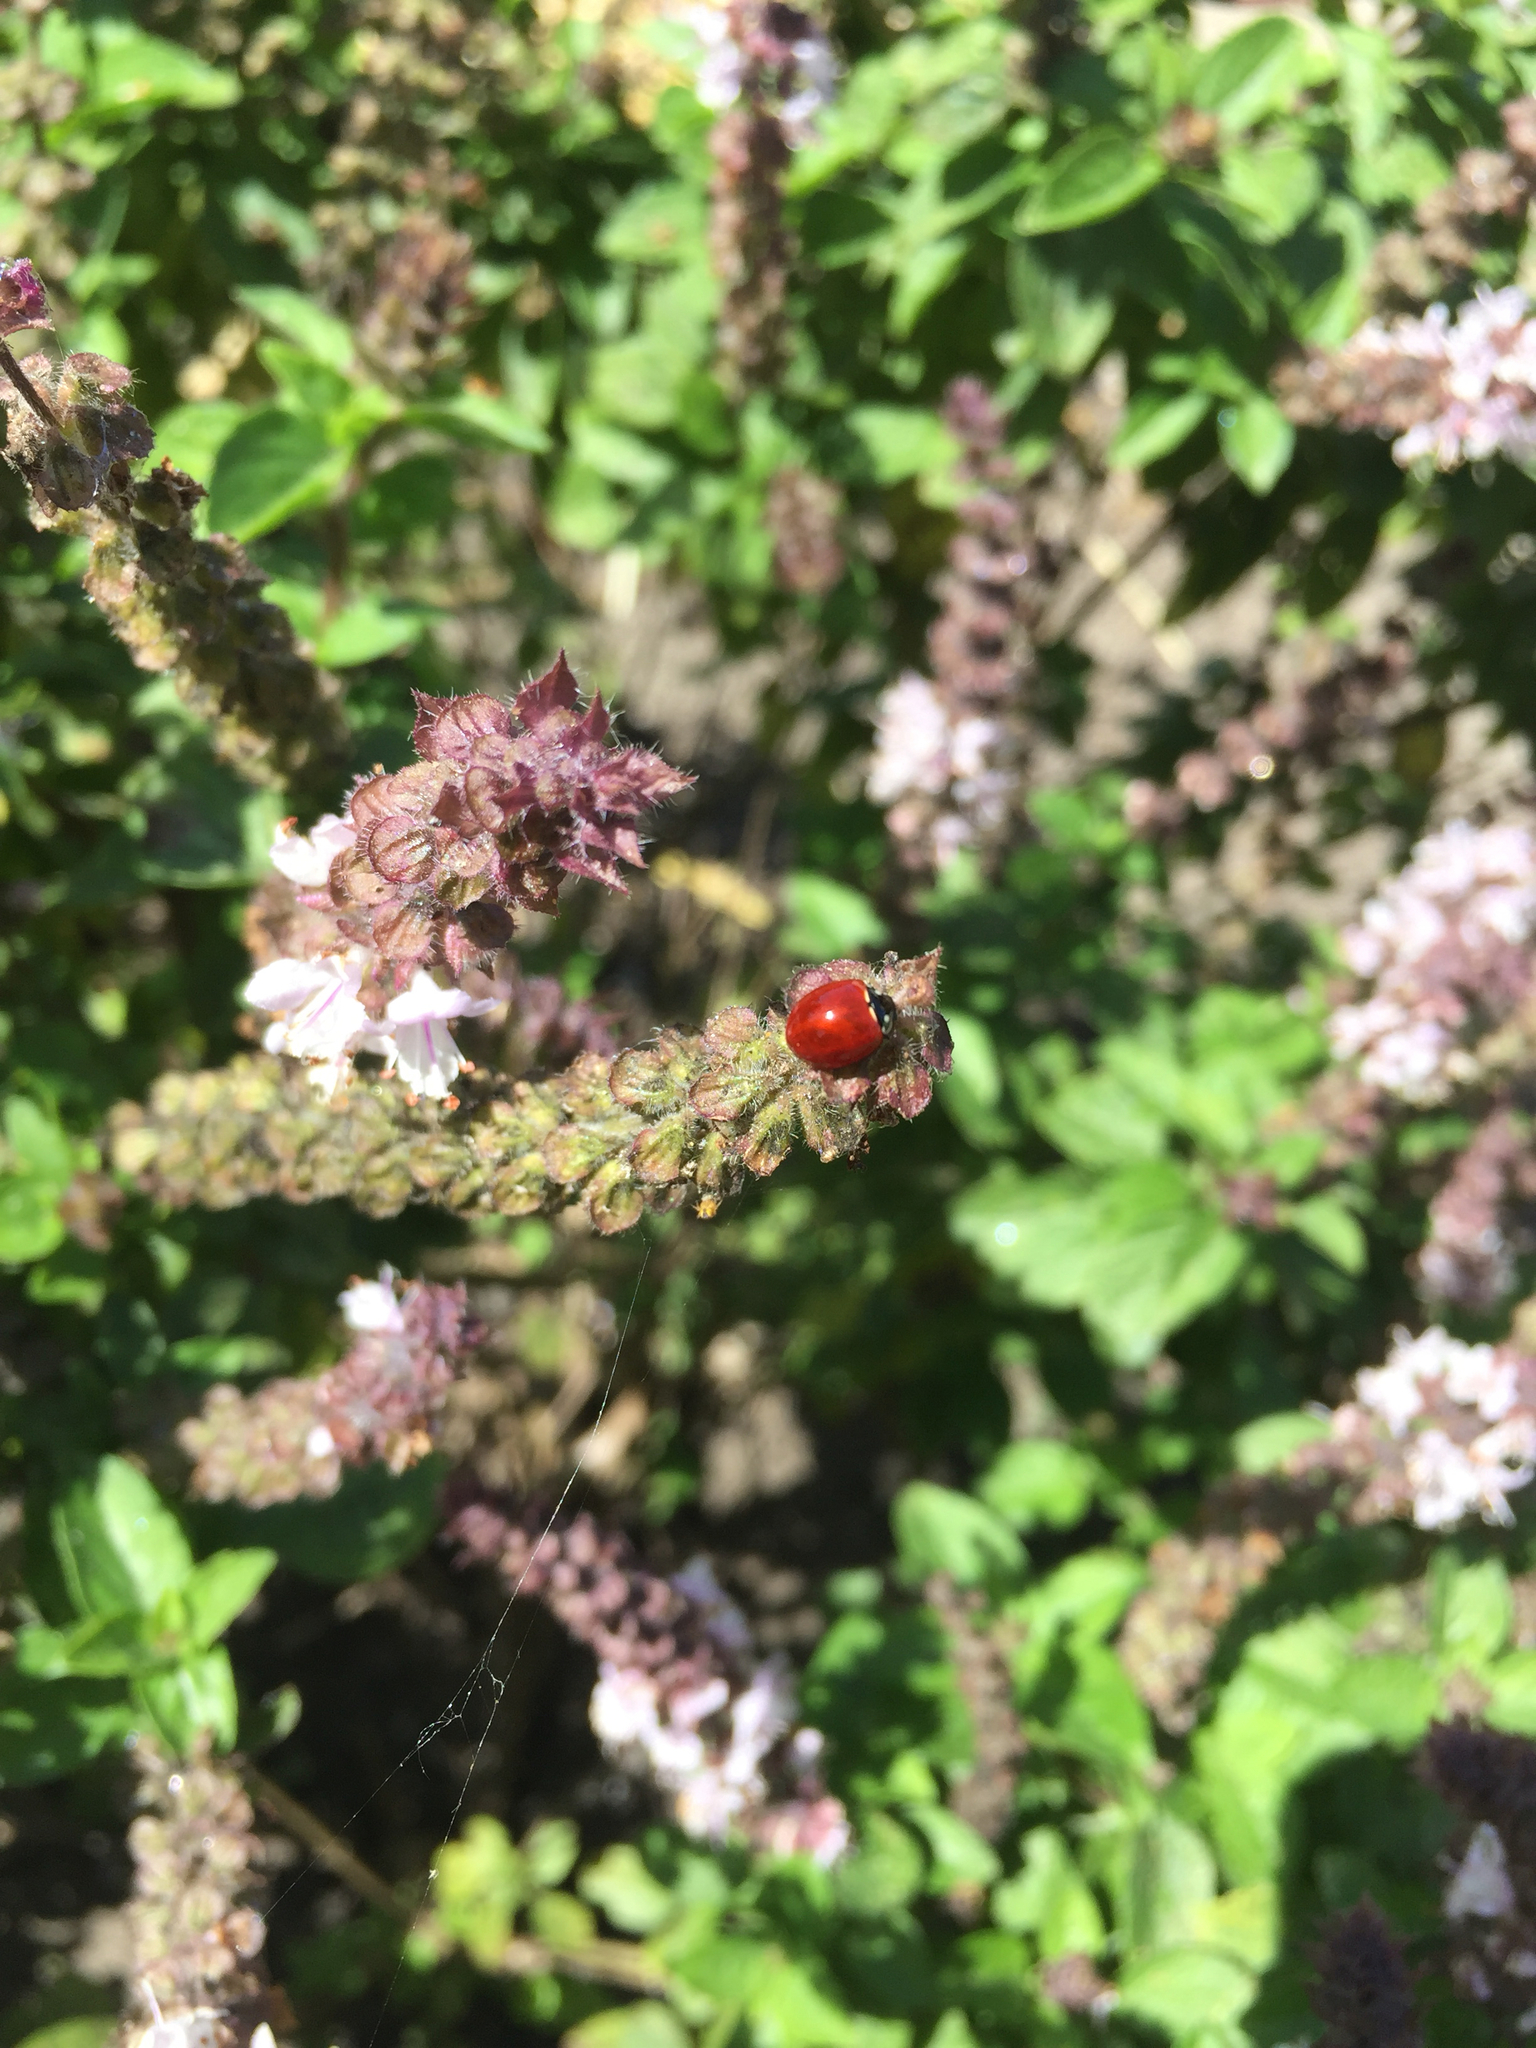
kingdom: Animalia
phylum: Arthropoda
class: Insecta
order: Coleoptera
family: Coccinellidae
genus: Cycloneda
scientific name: Cycloneda sanguinea
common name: Ladybird beetle
